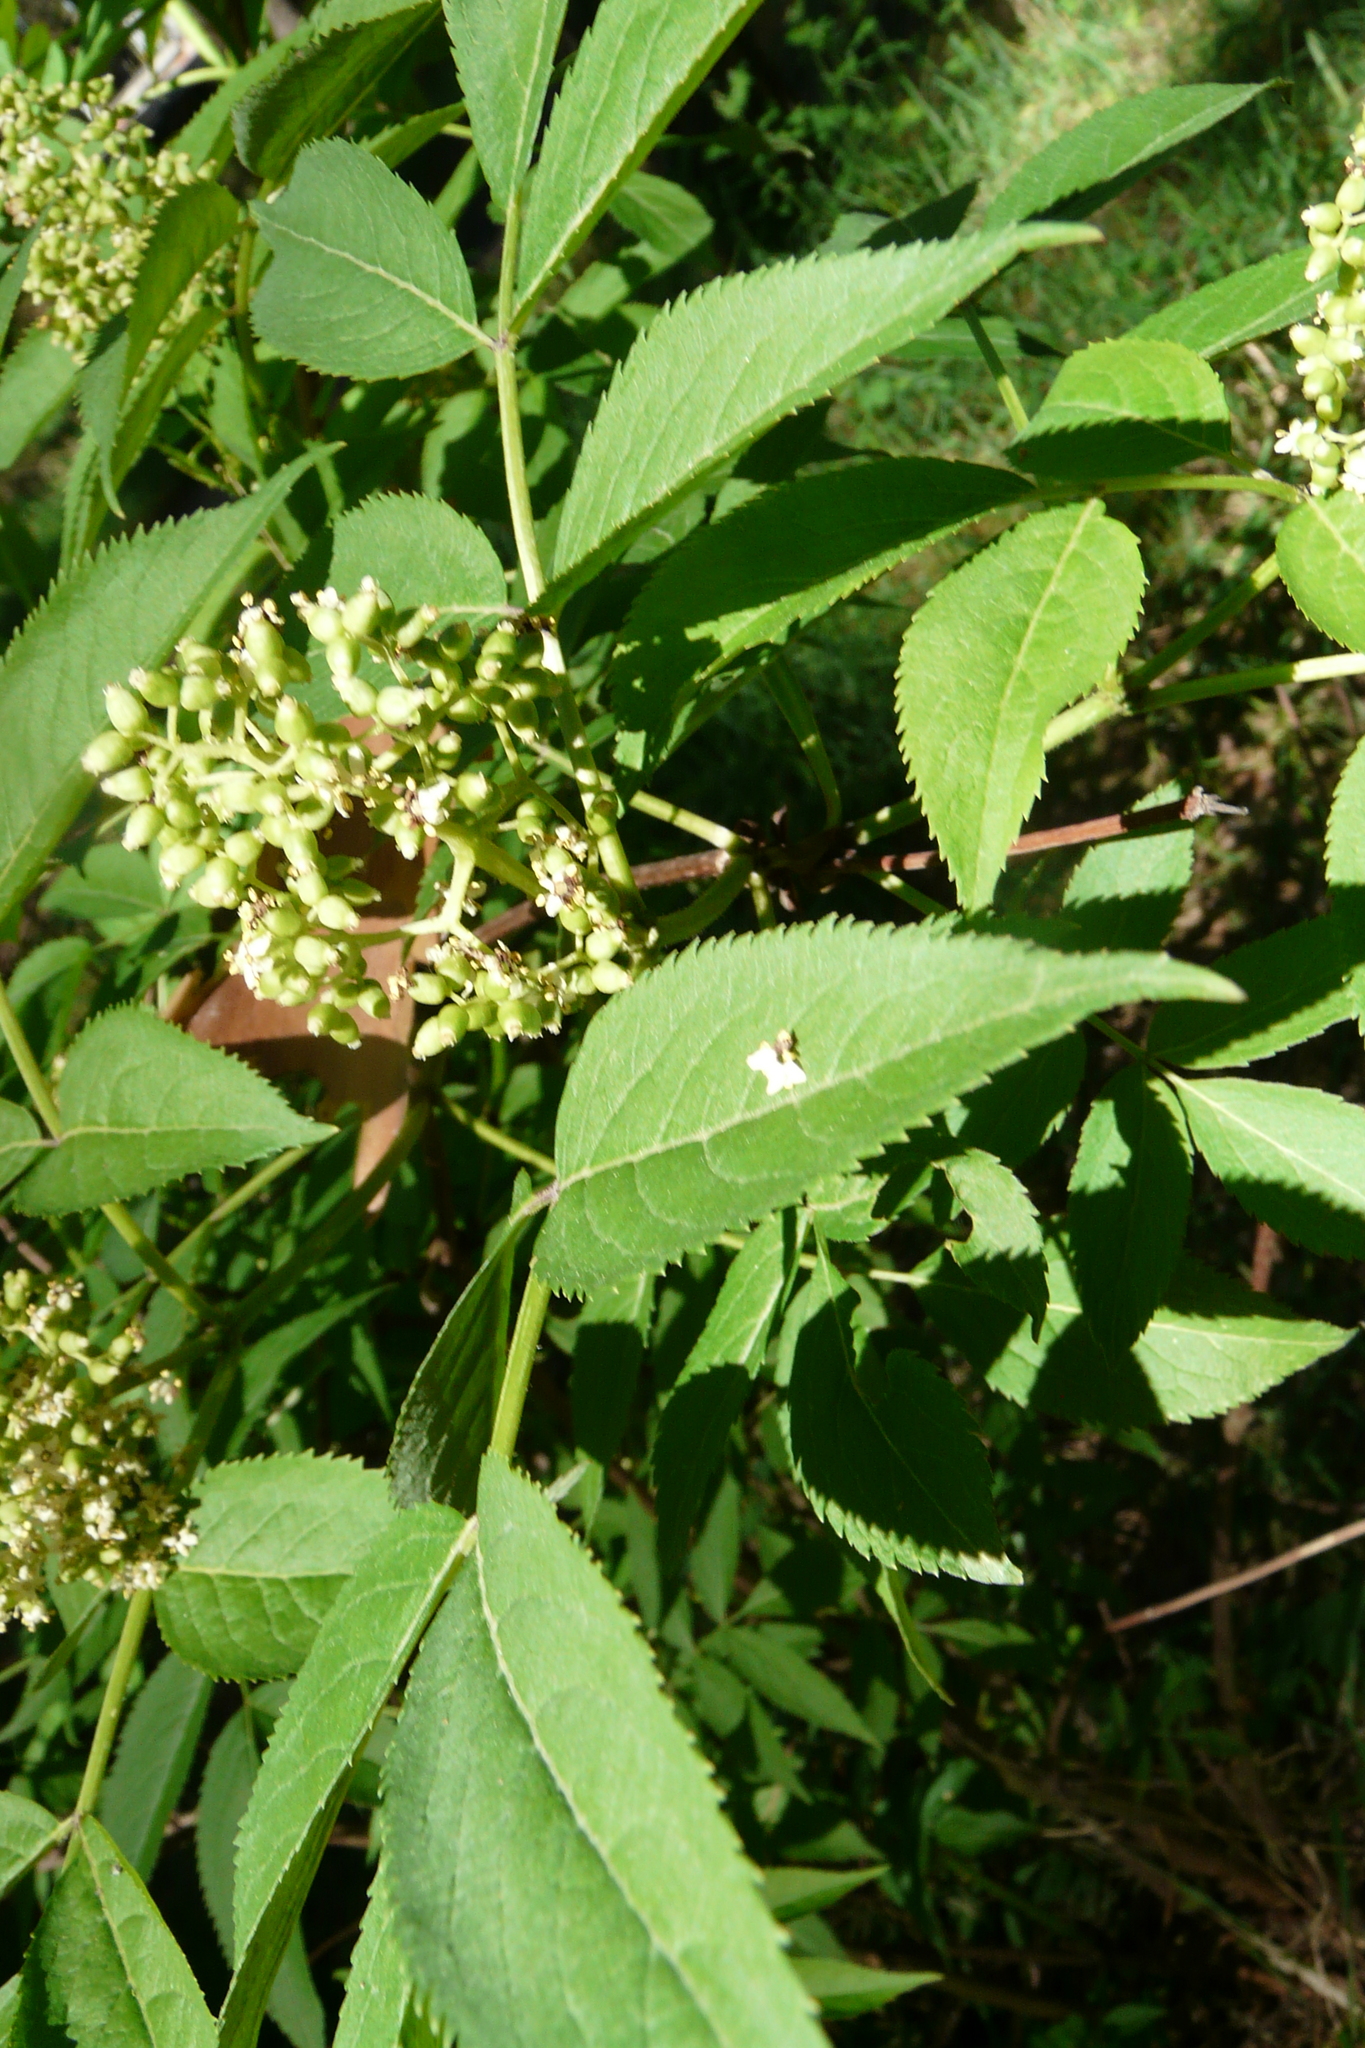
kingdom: Plantae
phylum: Tracheophyta
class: Magnoliopsida
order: Dipsacales
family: Viburnaceae
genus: Sambucus
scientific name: Sambucus racemosa
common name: Red-berried elder
